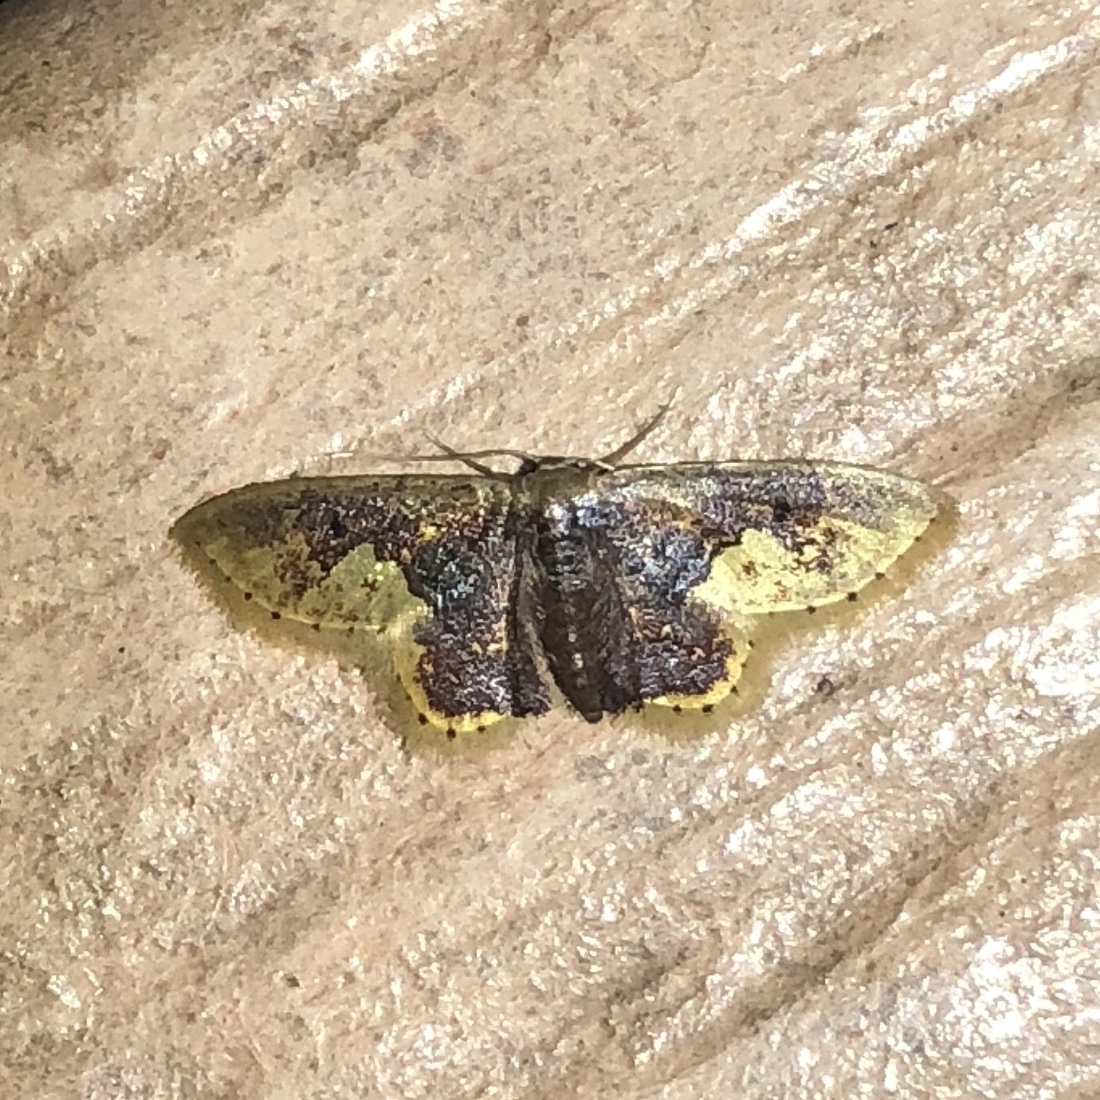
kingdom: Animalia
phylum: Arthropoda
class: Insecta
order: Lepidoptera
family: Geometridae
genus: Idaea
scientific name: Idaea helleria
